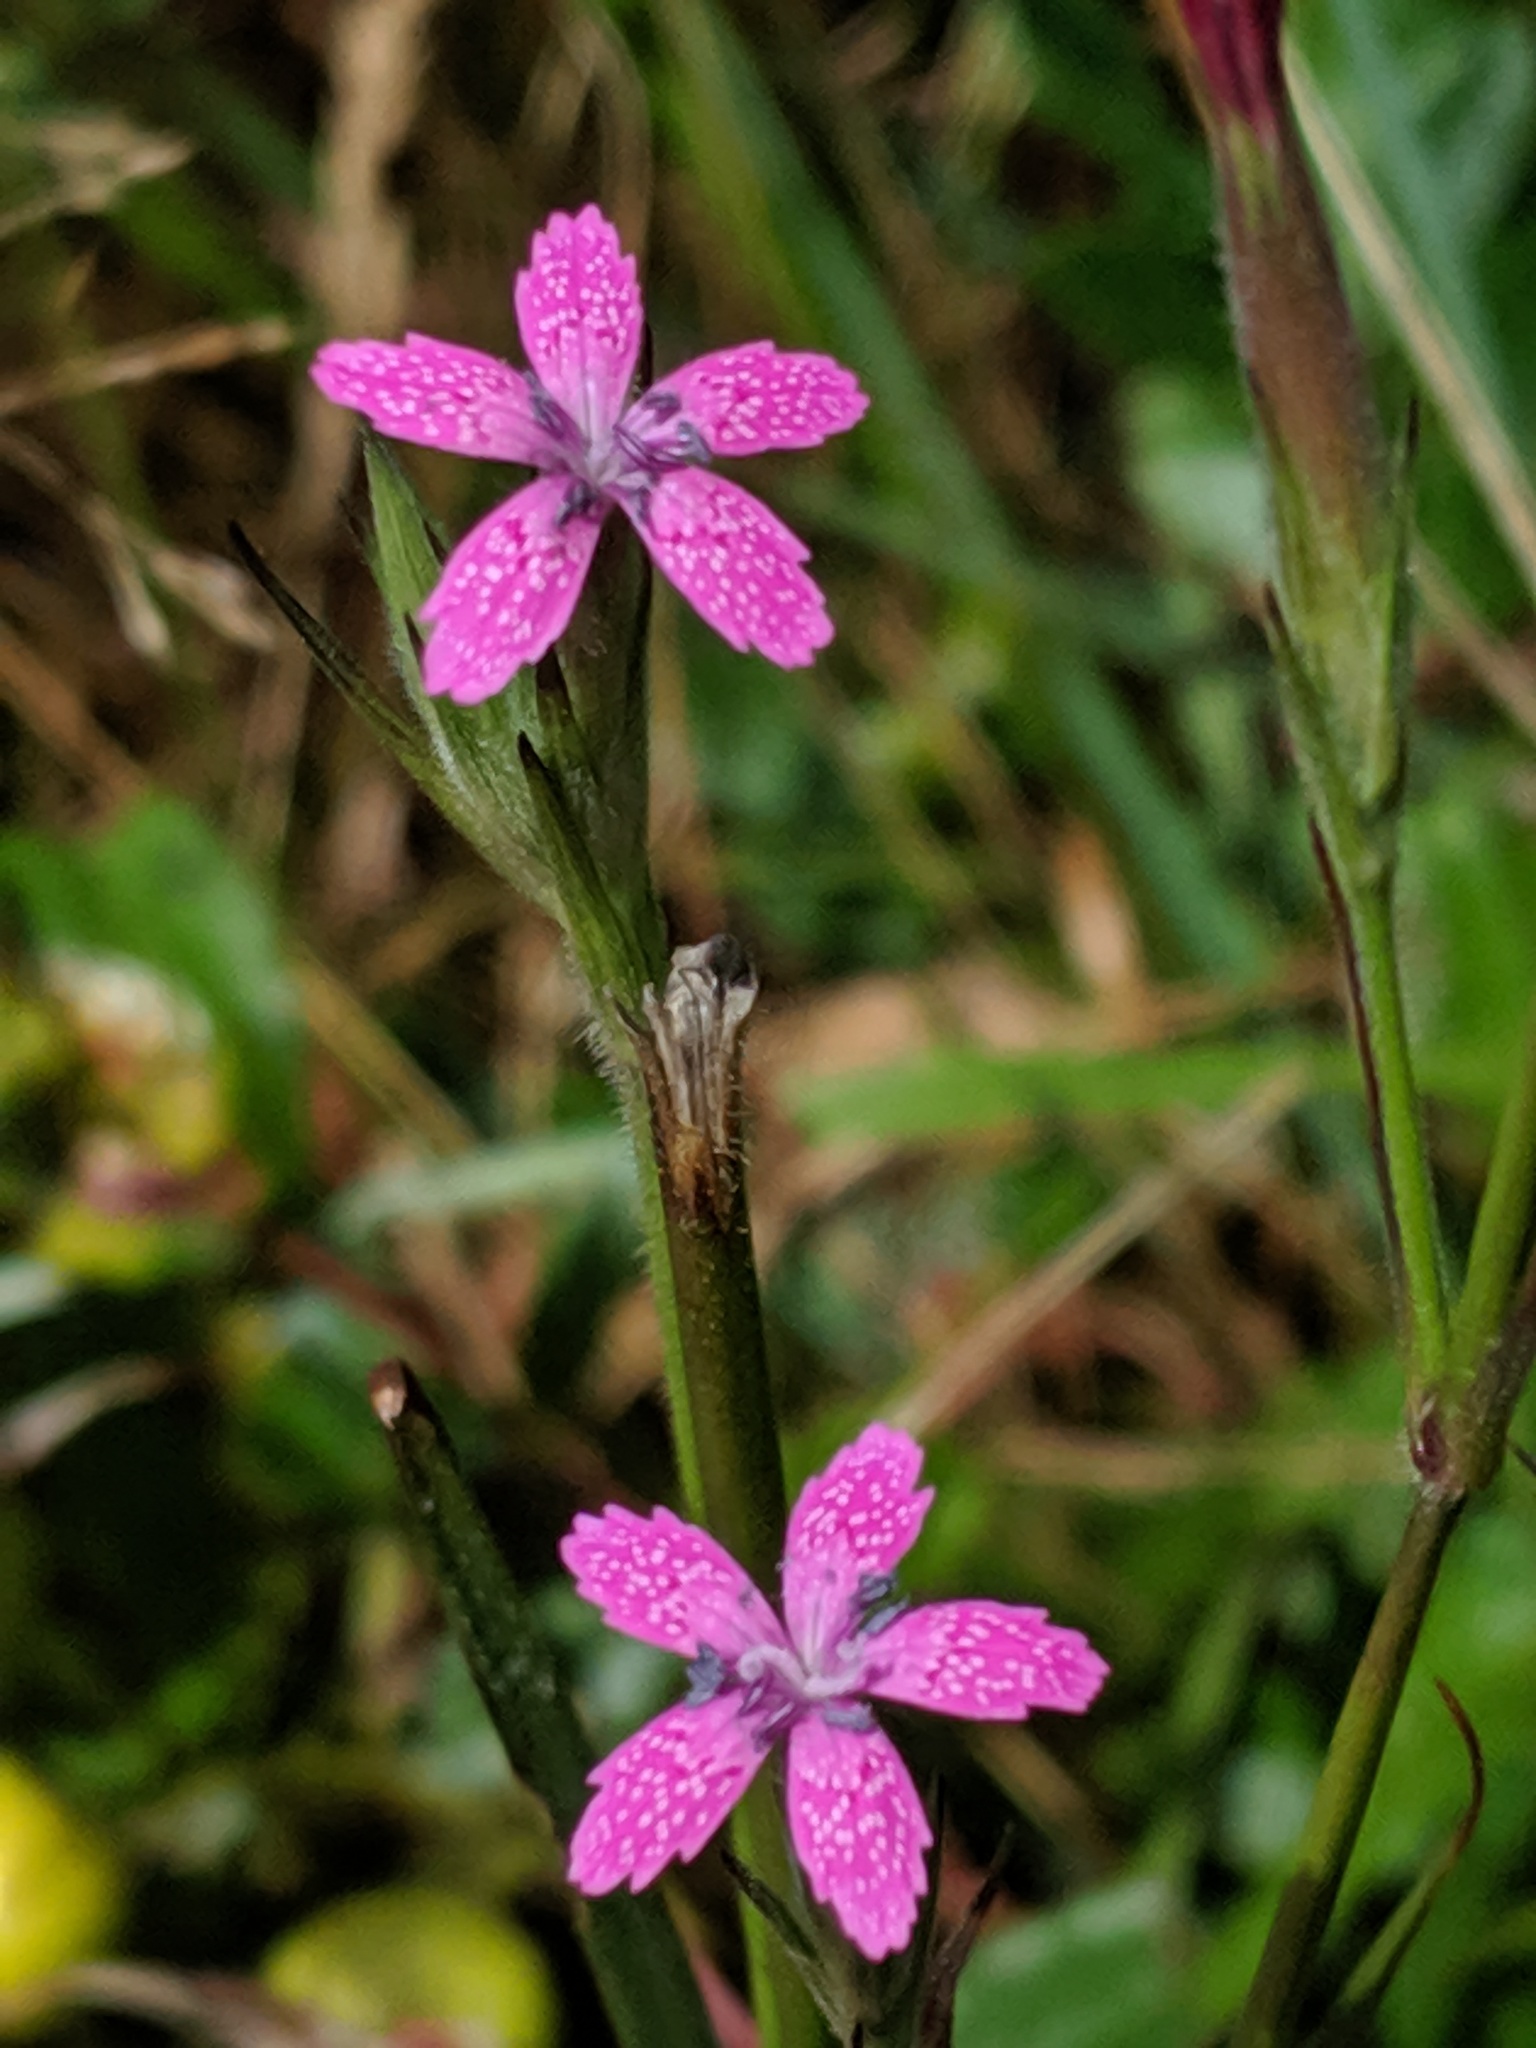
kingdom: Plantae
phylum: Tracheophyta
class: Magnoliopsida
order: Caryophyllales
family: Caryophyllaceae
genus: Dianthus
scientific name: Dianthus armeria
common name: Deptford pink
